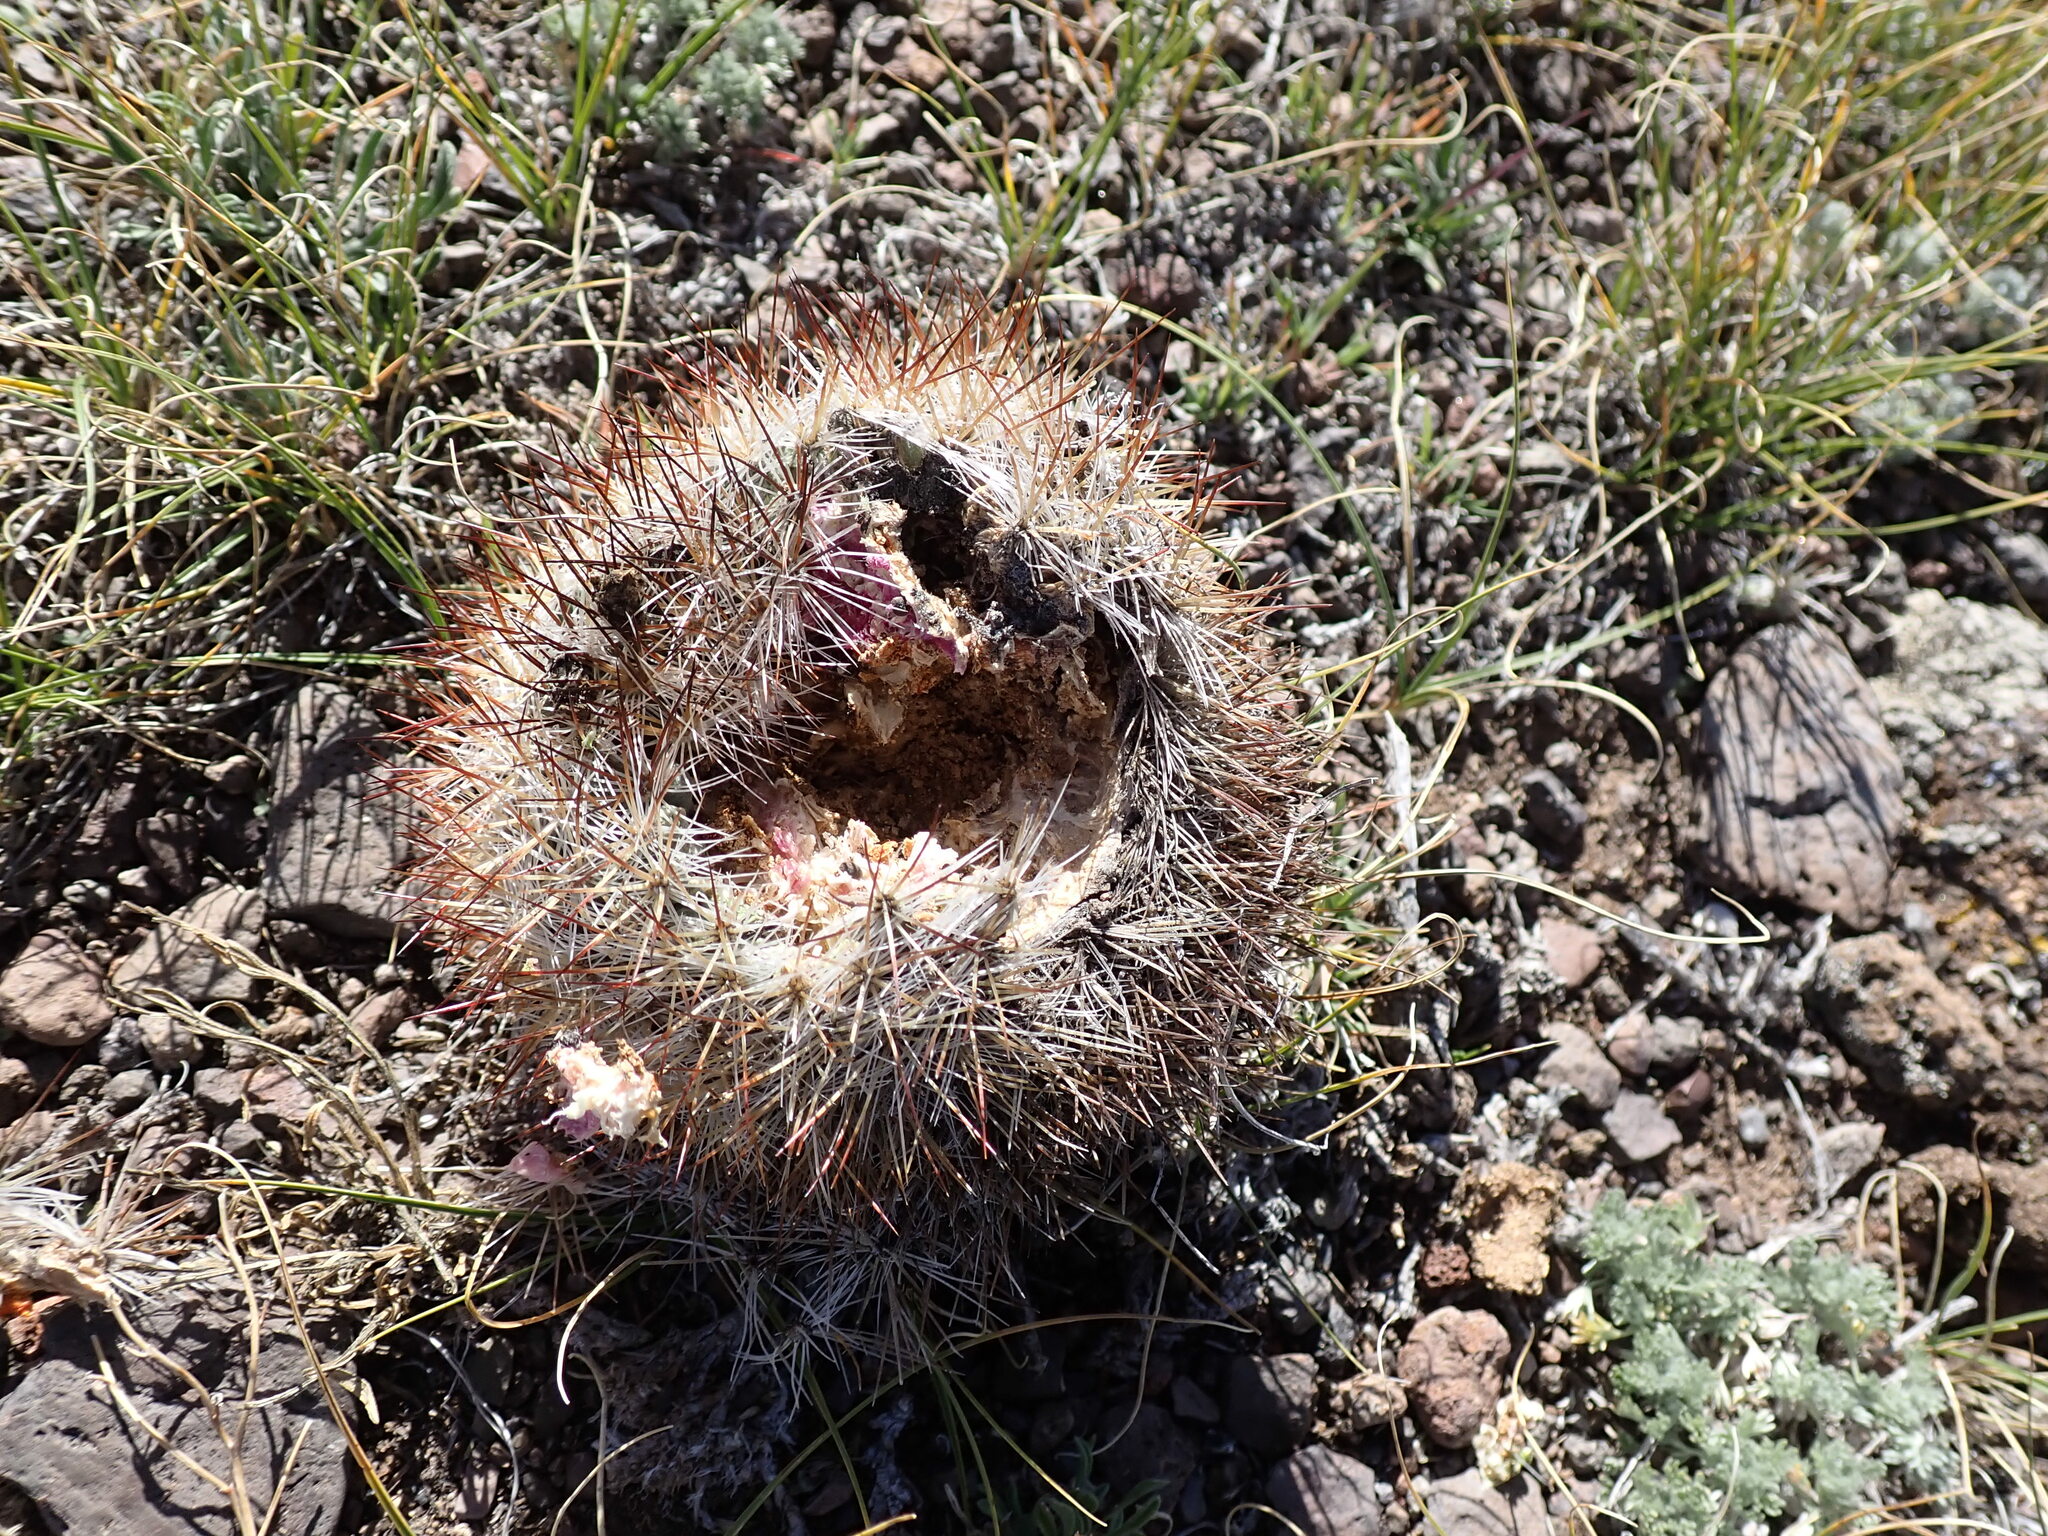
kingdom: Plantae
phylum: Tracheophyta
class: Magnoliopsida
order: Caryophyllales
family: Cactaceae
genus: Pediocactus
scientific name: Pediocactus simpsonii
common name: Simpson's hedgehog cactus
